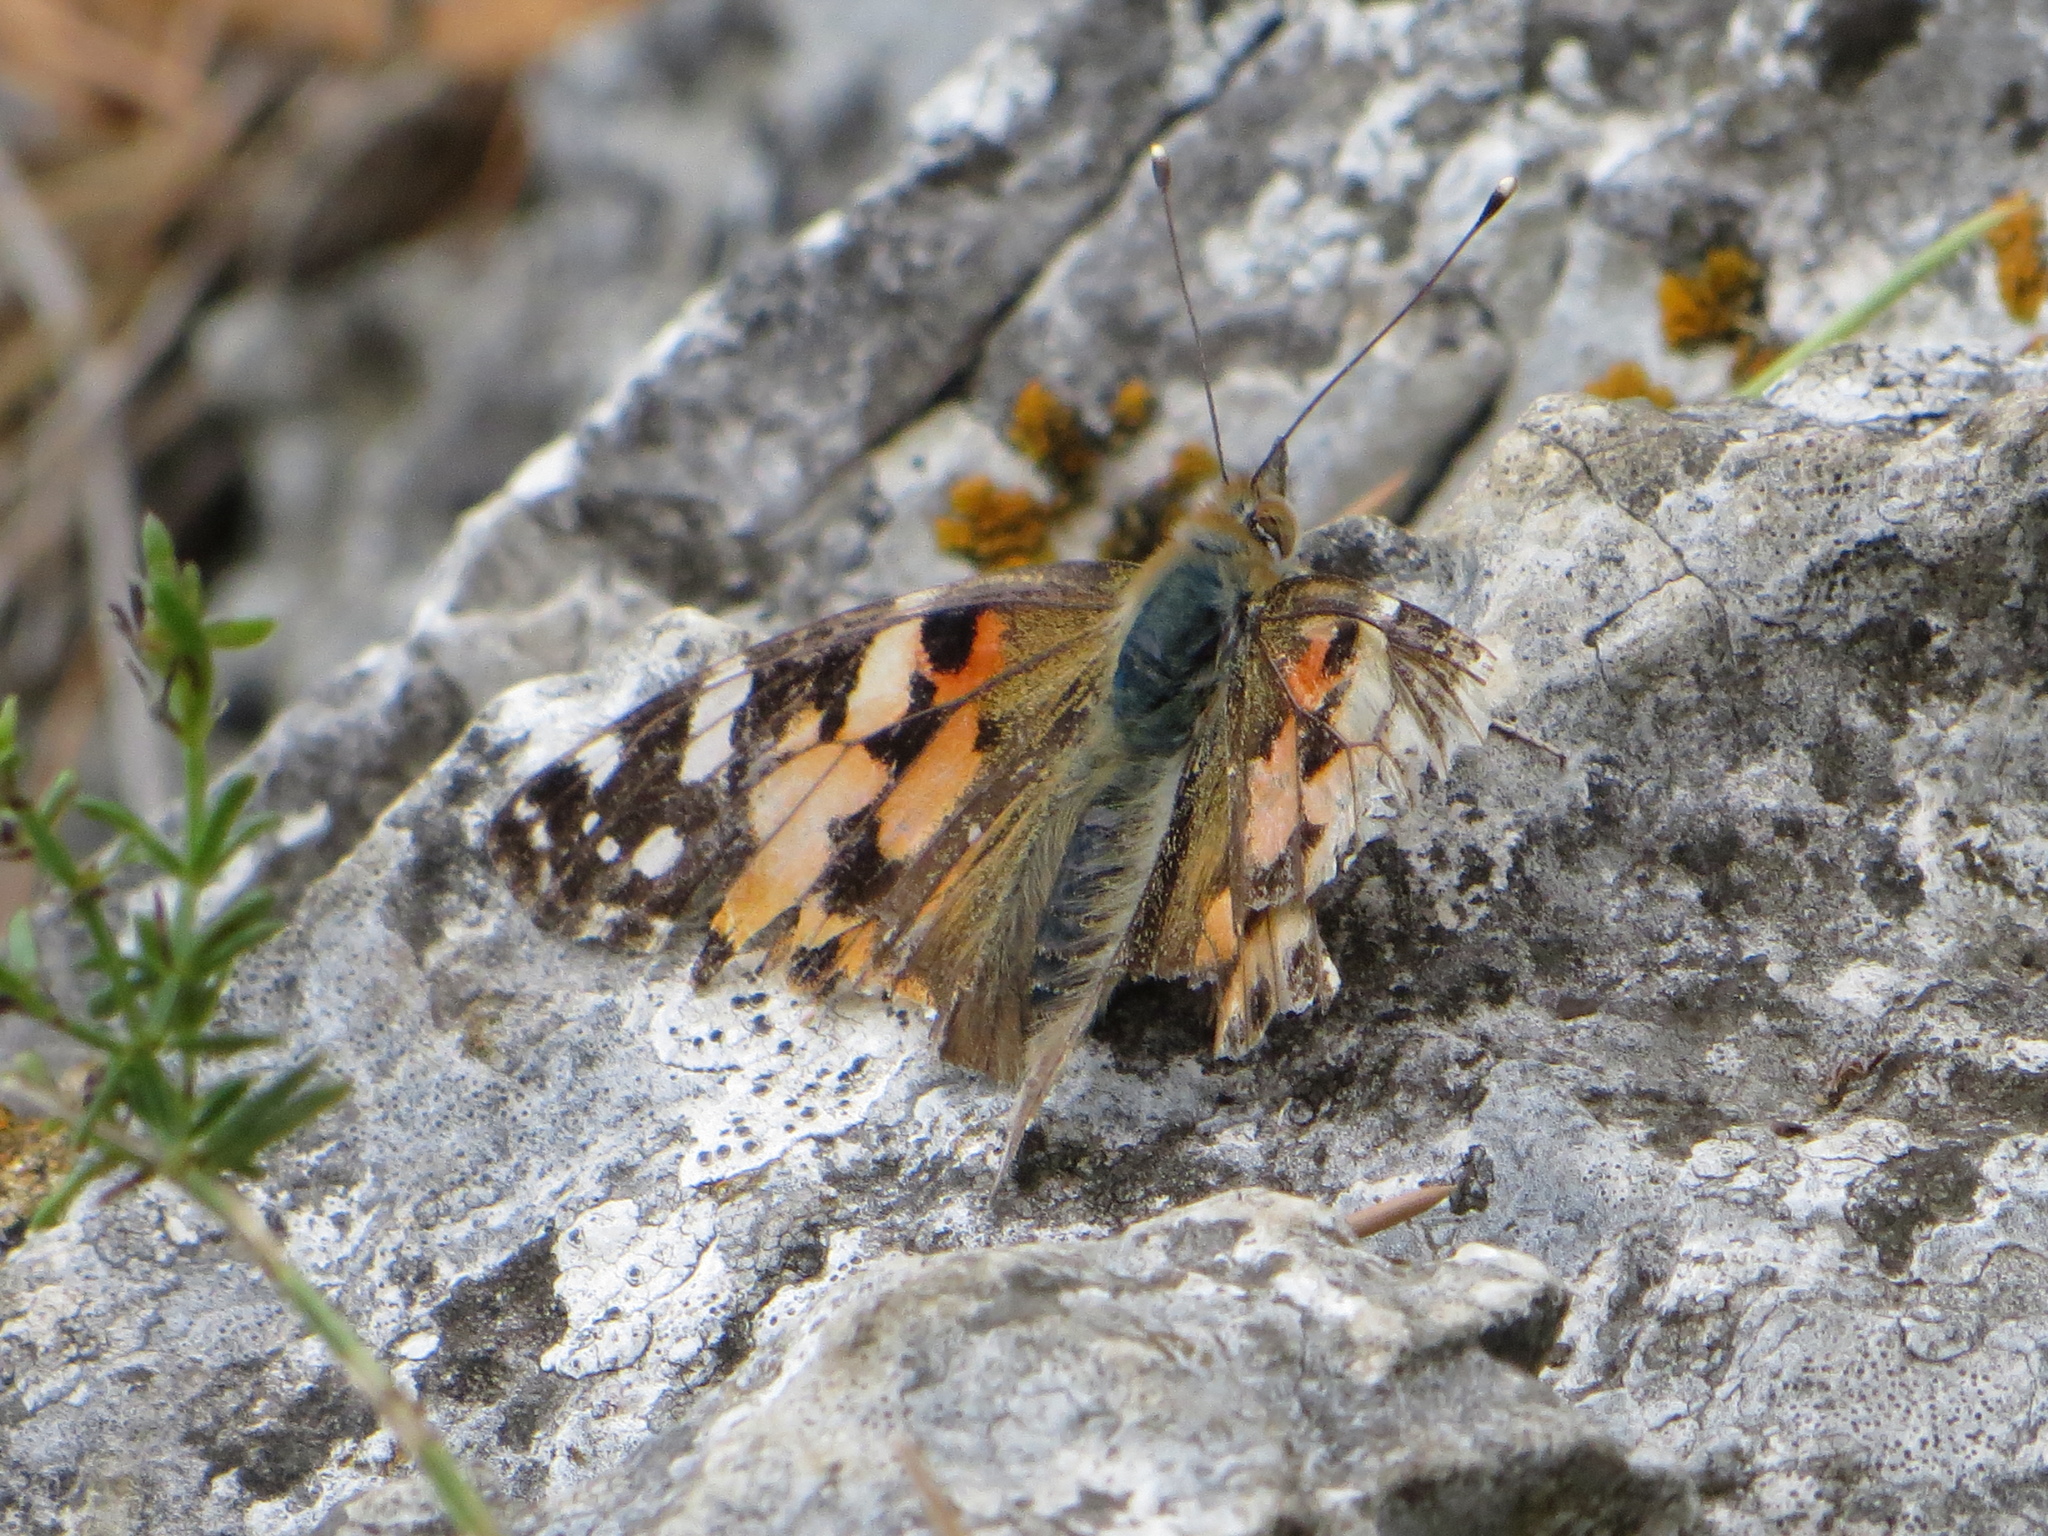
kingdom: Animalia
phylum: Arthropoda
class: Insecta
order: Lepidoptera
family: Nymphalidae
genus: Vanessa
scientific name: Vanessa cardui
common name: Painted lady
